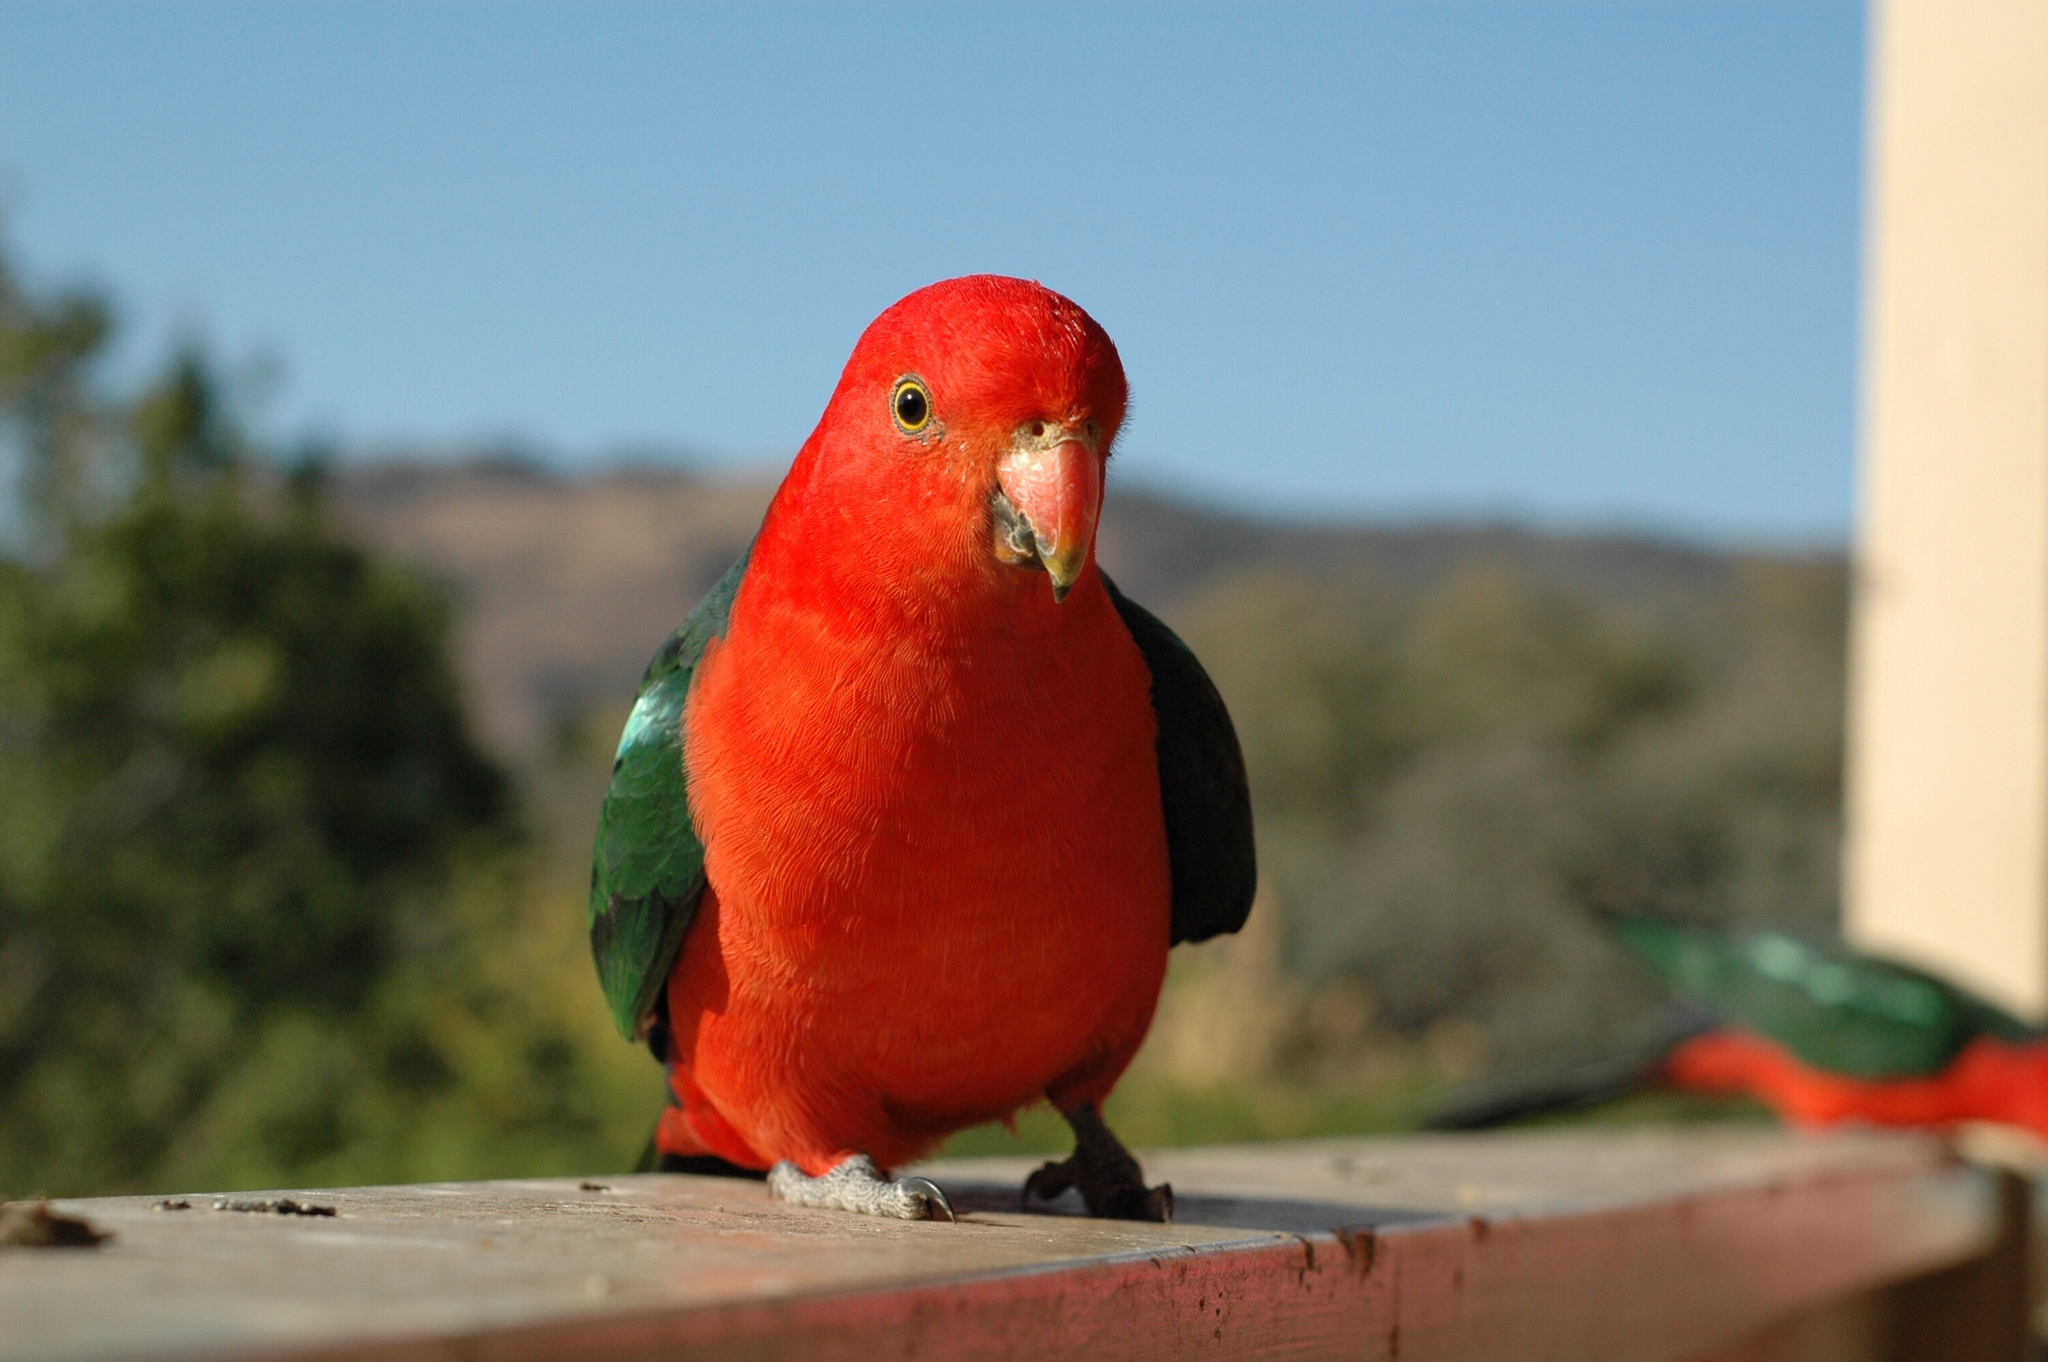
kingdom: Animalia
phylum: Chordata
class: Aves
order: Psittaciformes
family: Psittacidae
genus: Alisterus
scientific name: Alisterus scapularis
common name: Australian king parrot
